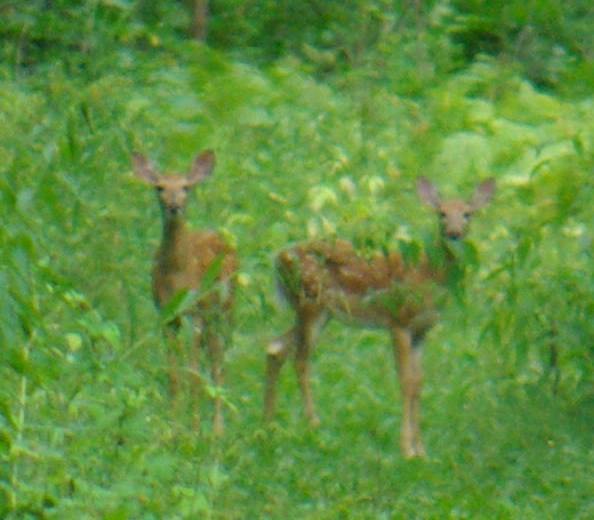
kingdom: Animalia
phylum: Chordata
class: Mammalia
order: Artiodactyla
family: Cervidae
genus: Odocoileus
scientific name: Odocoileus virginianus
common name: White-tailed deer
